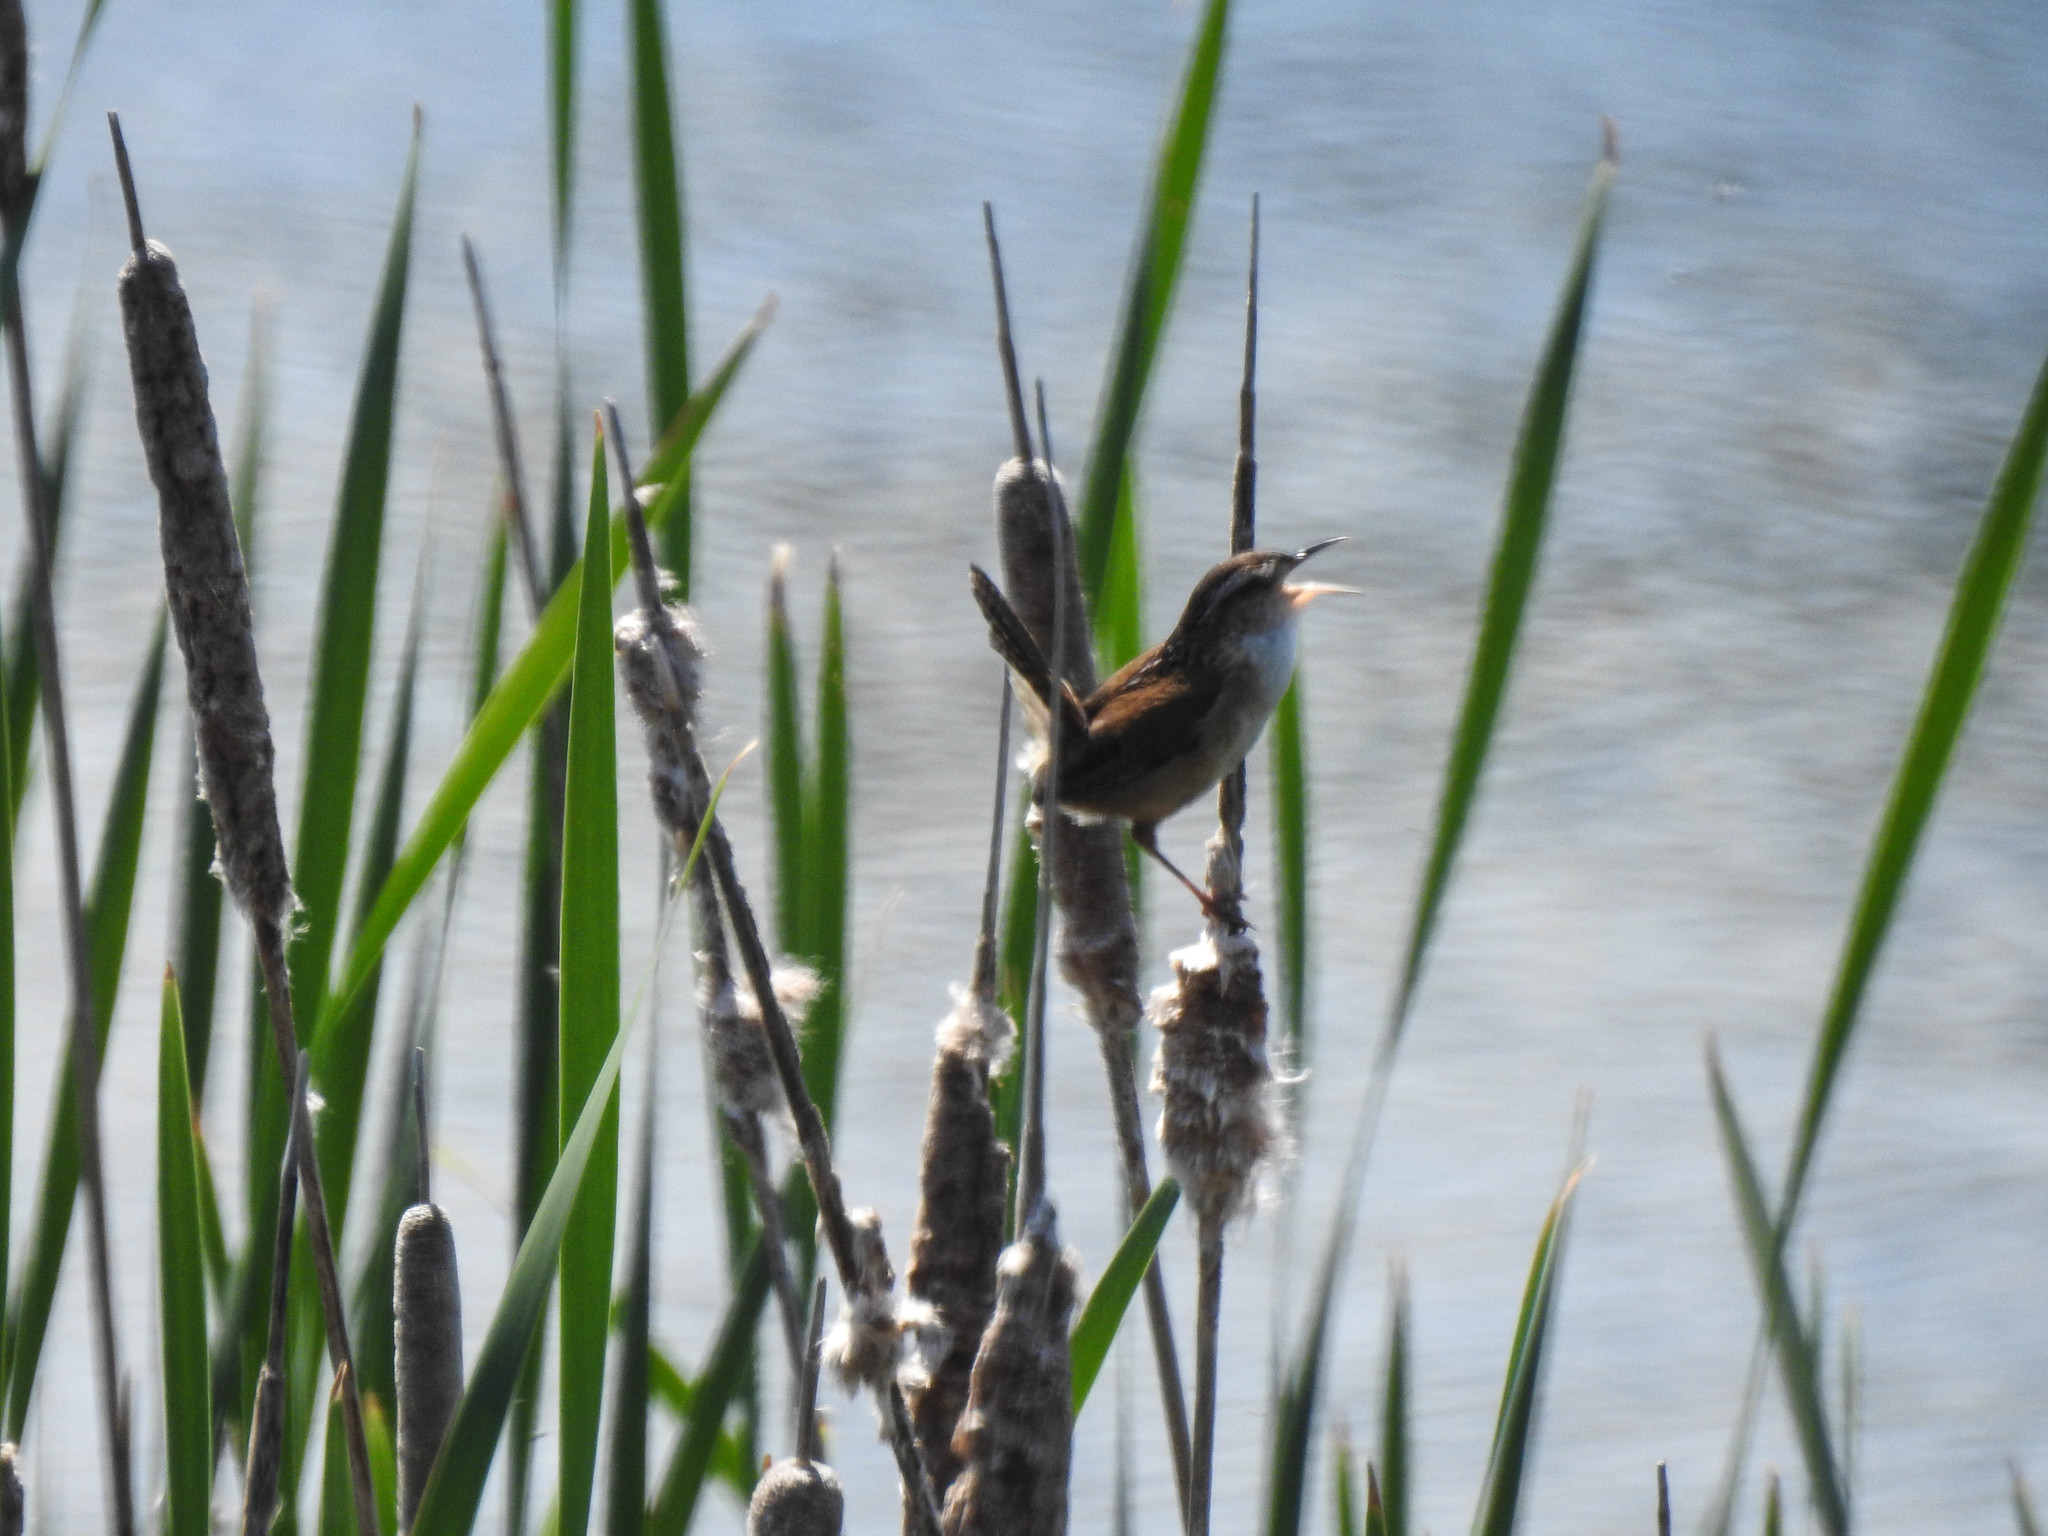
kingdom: Animalia
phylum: Chordata
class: Aves
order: Passeriformes
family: Troglodytidae
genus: Cistothorus
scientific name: Cistothorus palustris
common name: Marsh wren
